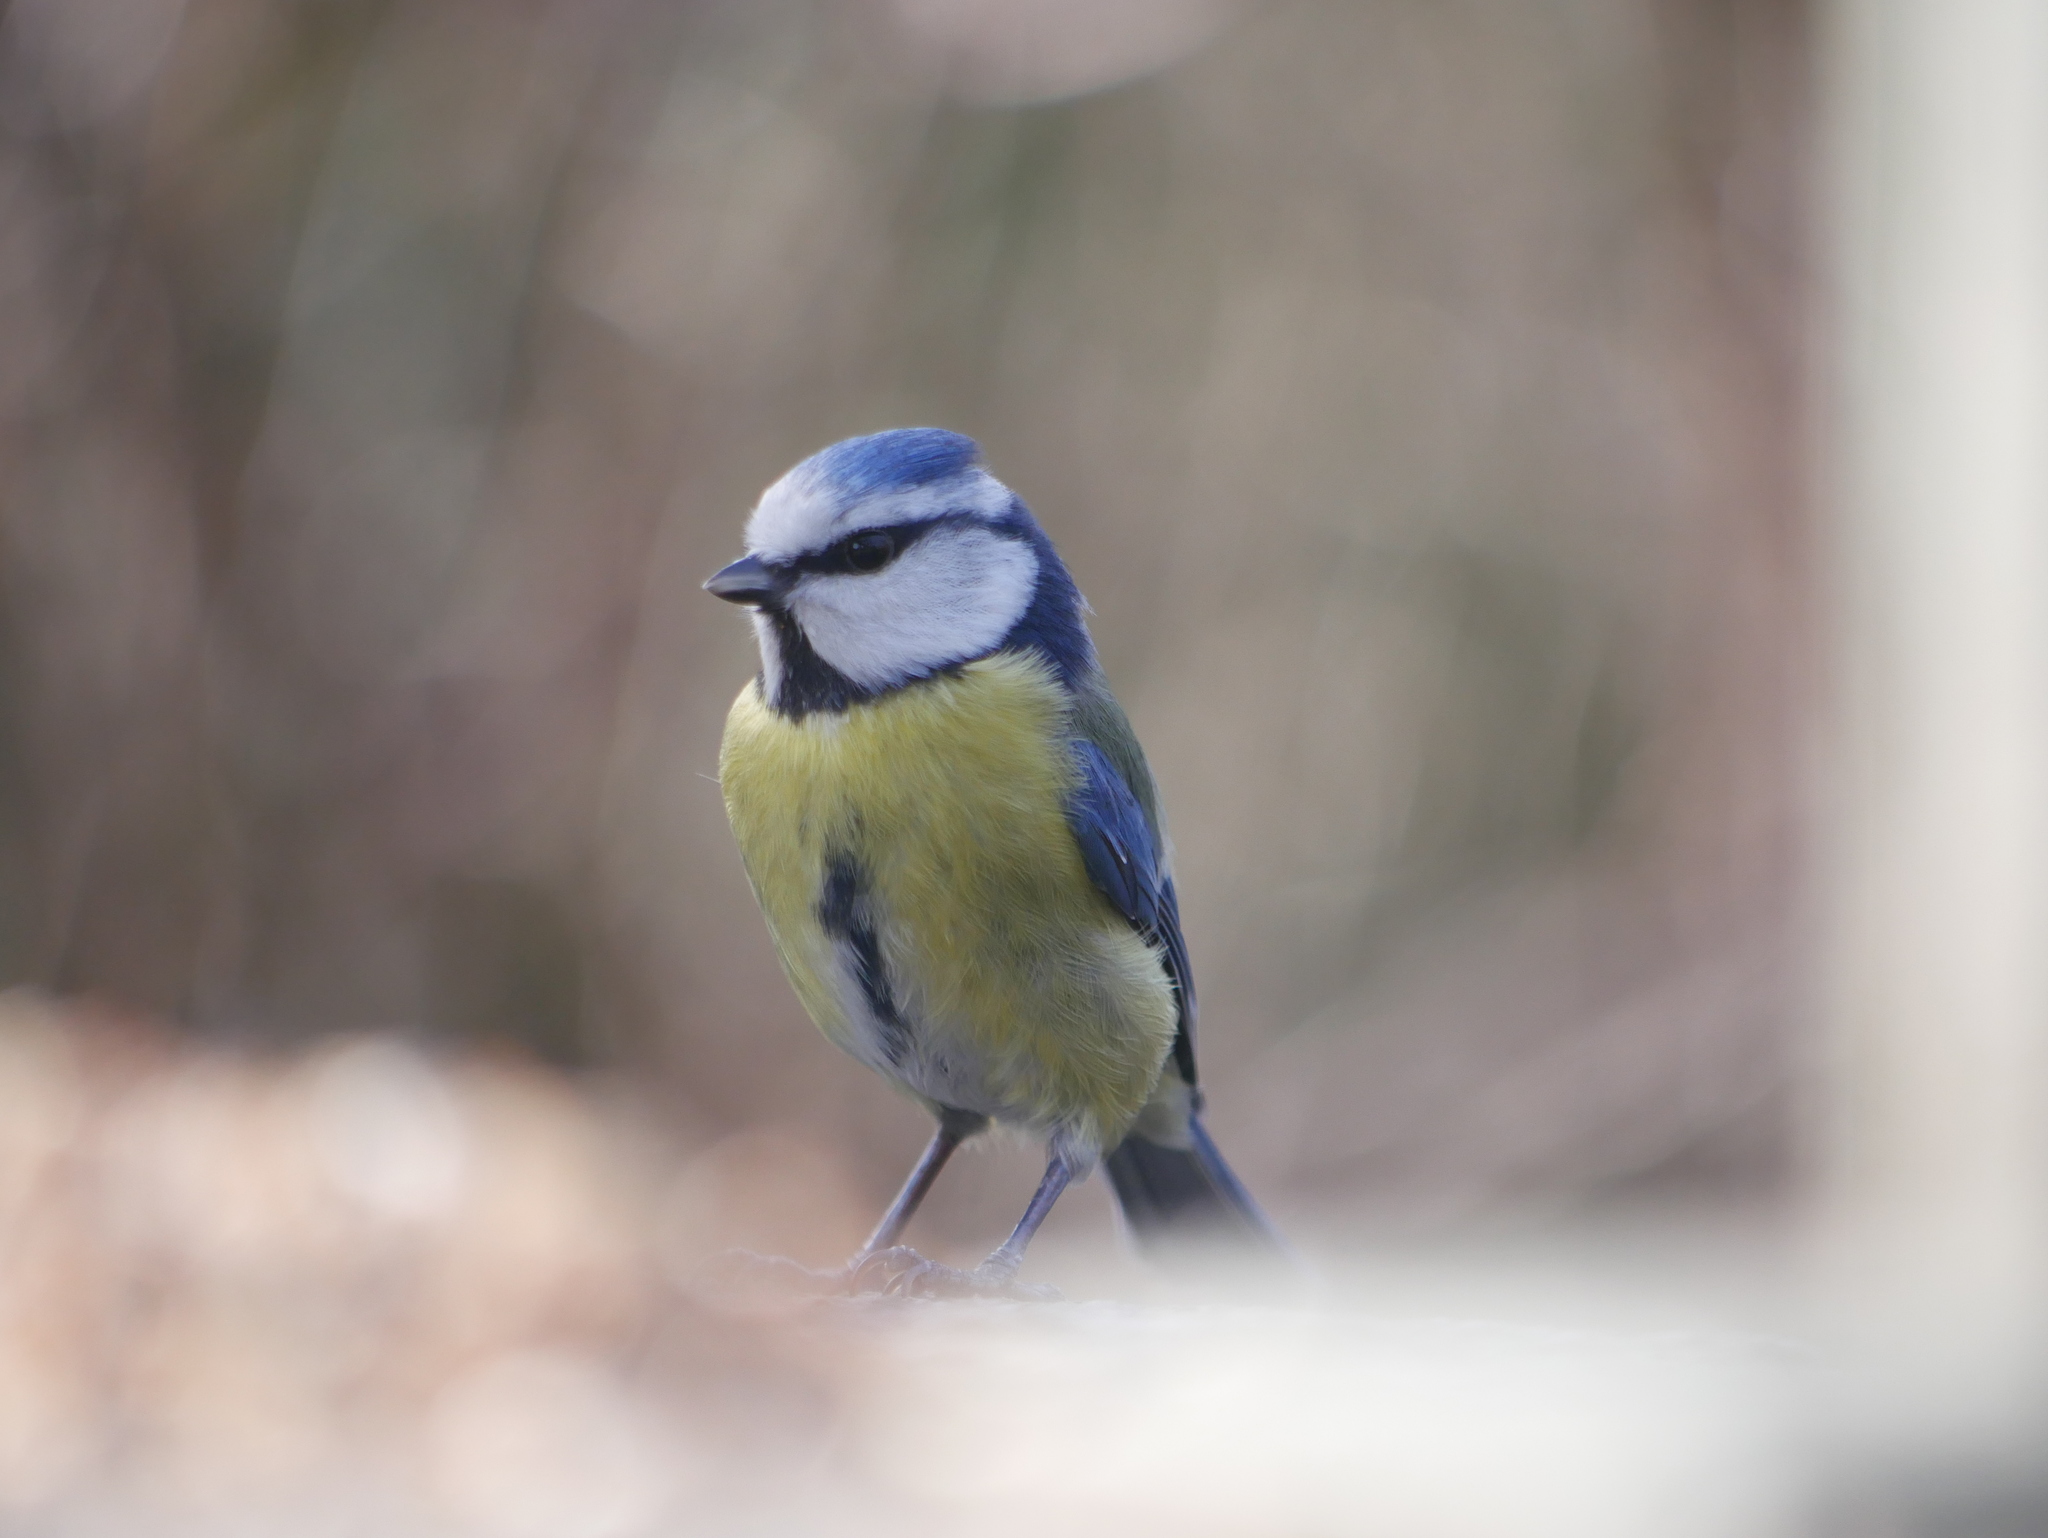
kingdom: Animalia
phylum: Chordata
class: Aves
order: Passeriformes
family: Paridae
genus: Cyanistes
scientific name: Cyanistes caeruleus
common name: Eurasian blue tit
